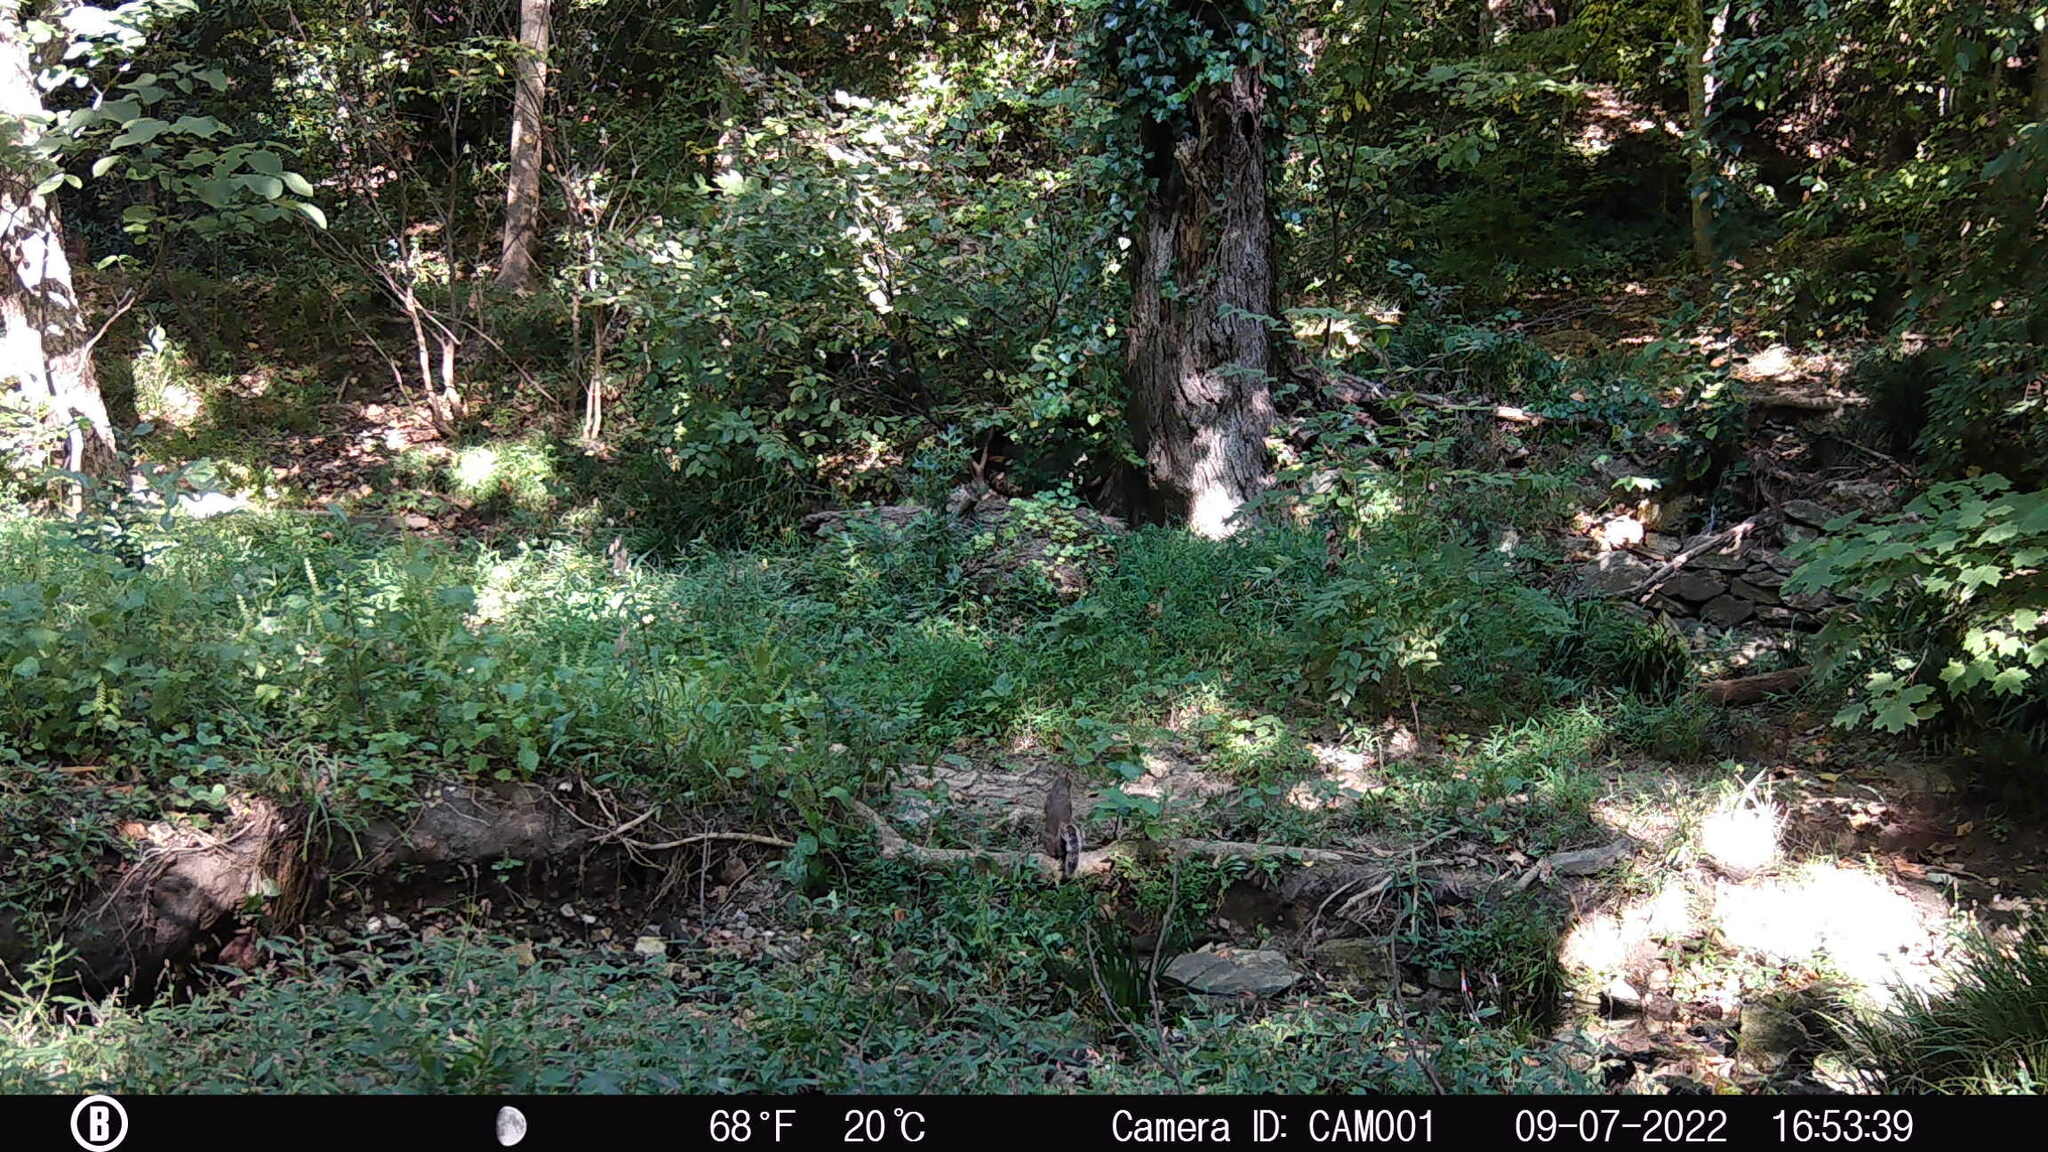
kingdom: Animalia
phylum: Chordata
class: Mammalia
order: Rodentia
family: Sciuridae
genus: Sciurus
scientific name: Sciurus carolinensis
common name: Eastern gray squirrel
